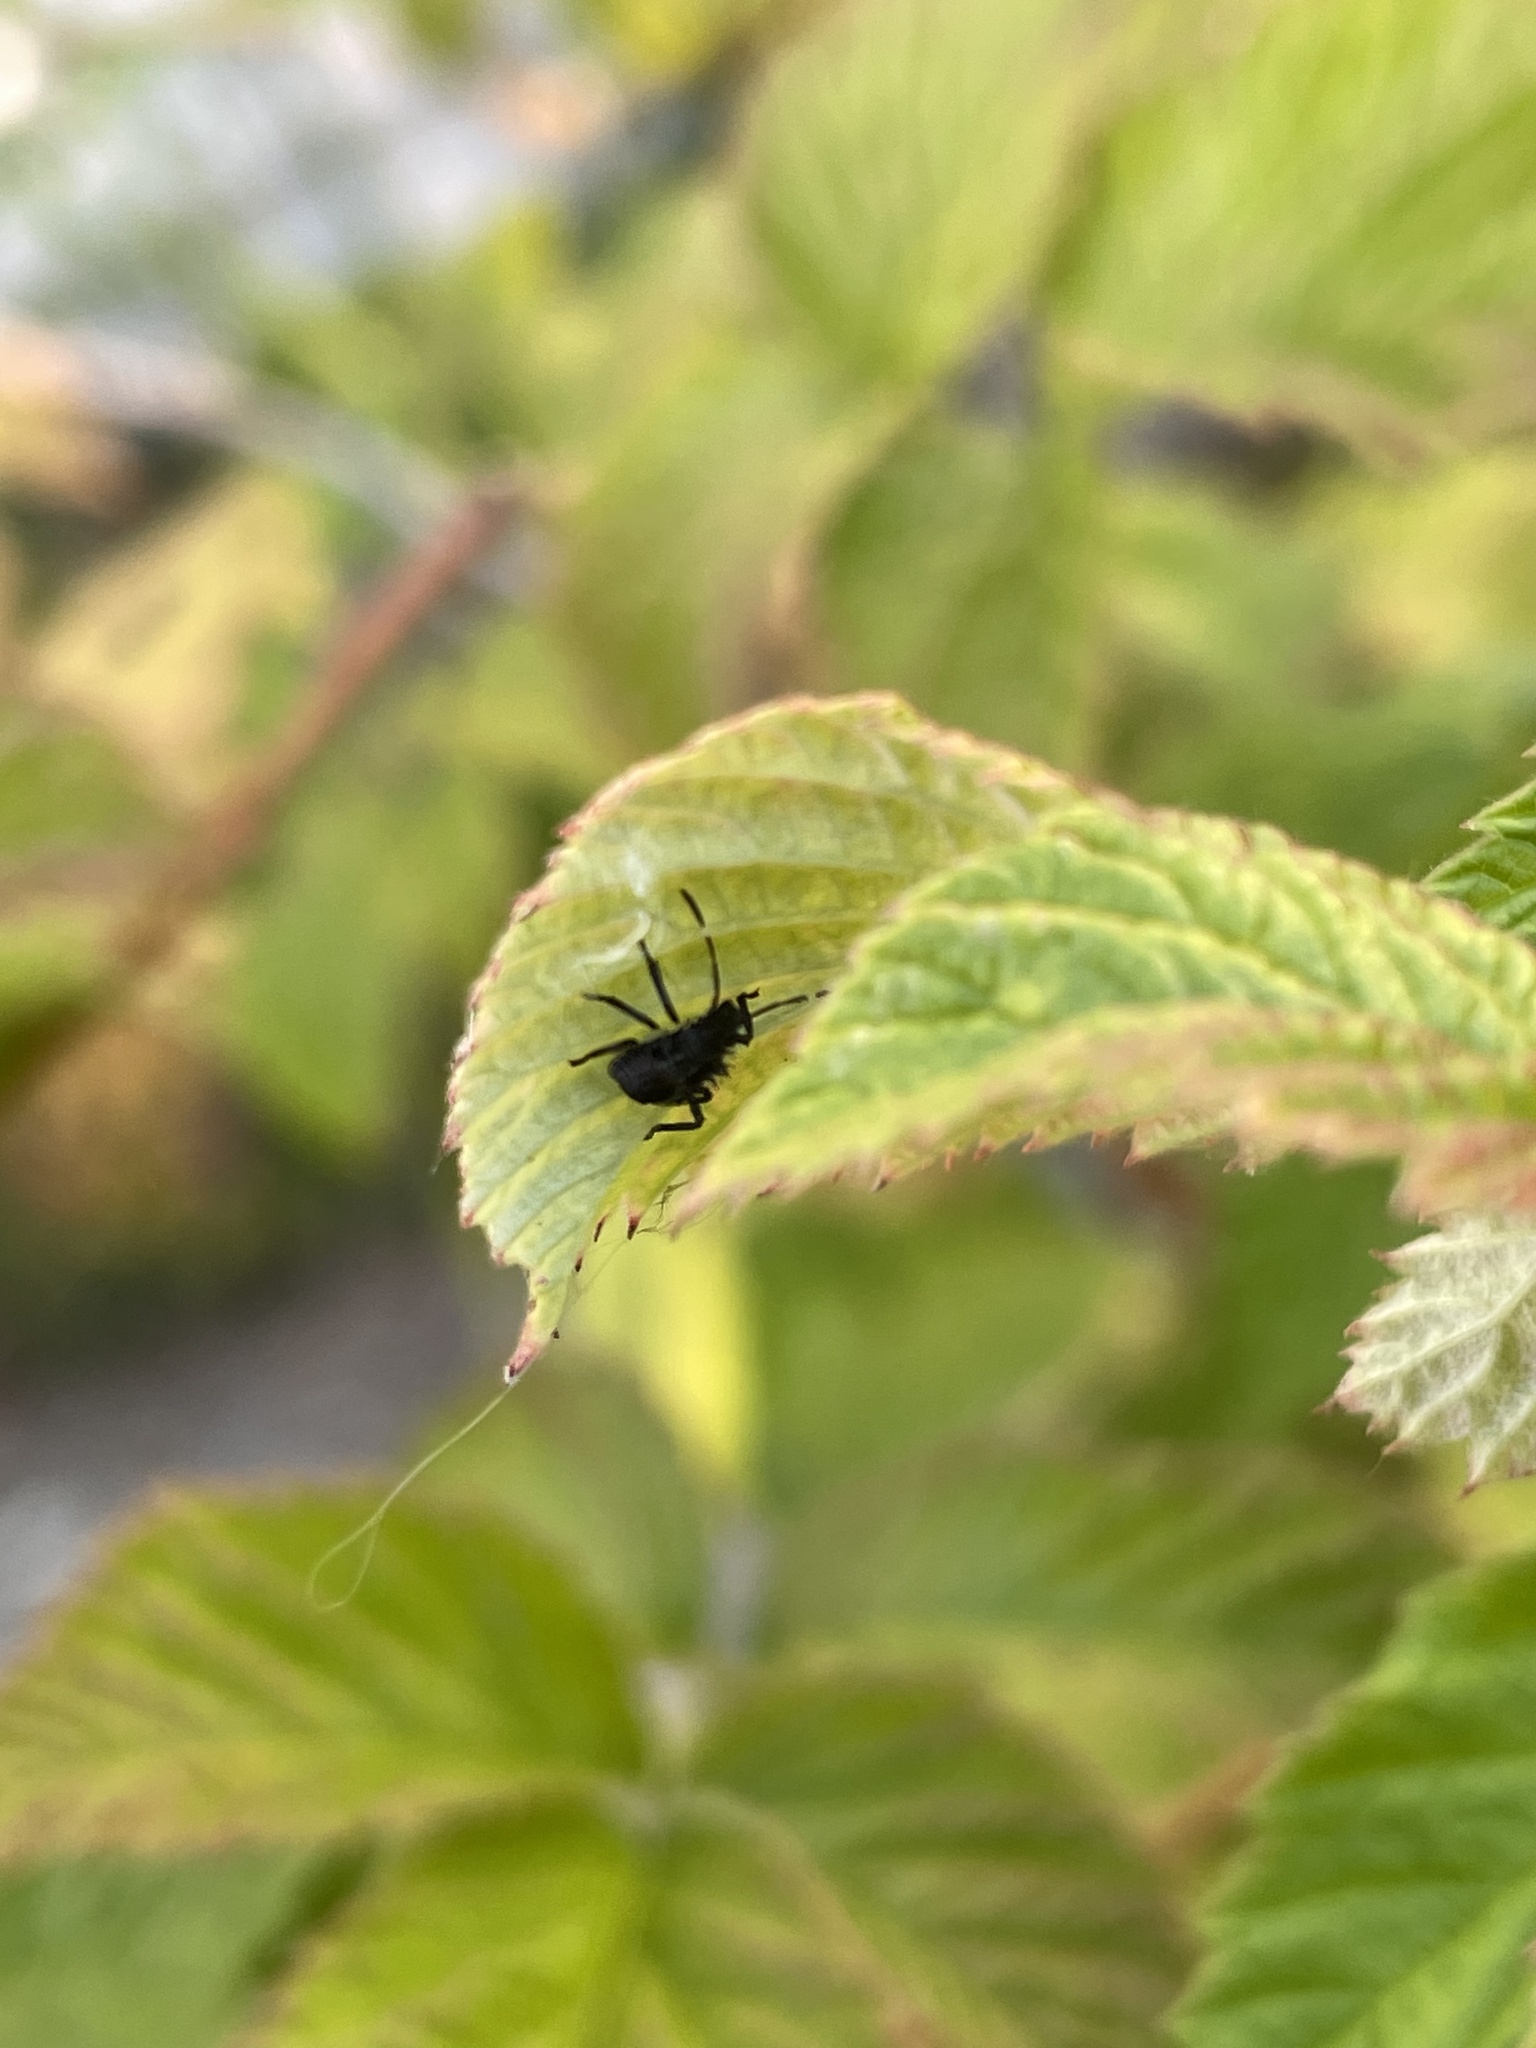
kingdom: Animalia
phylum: Arthropoda
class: Insecta
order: Hemiptera
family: Pentatomidae
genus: Halyomorpha
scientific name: Halyomorpha halys
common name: Brown marmorated stink bug
